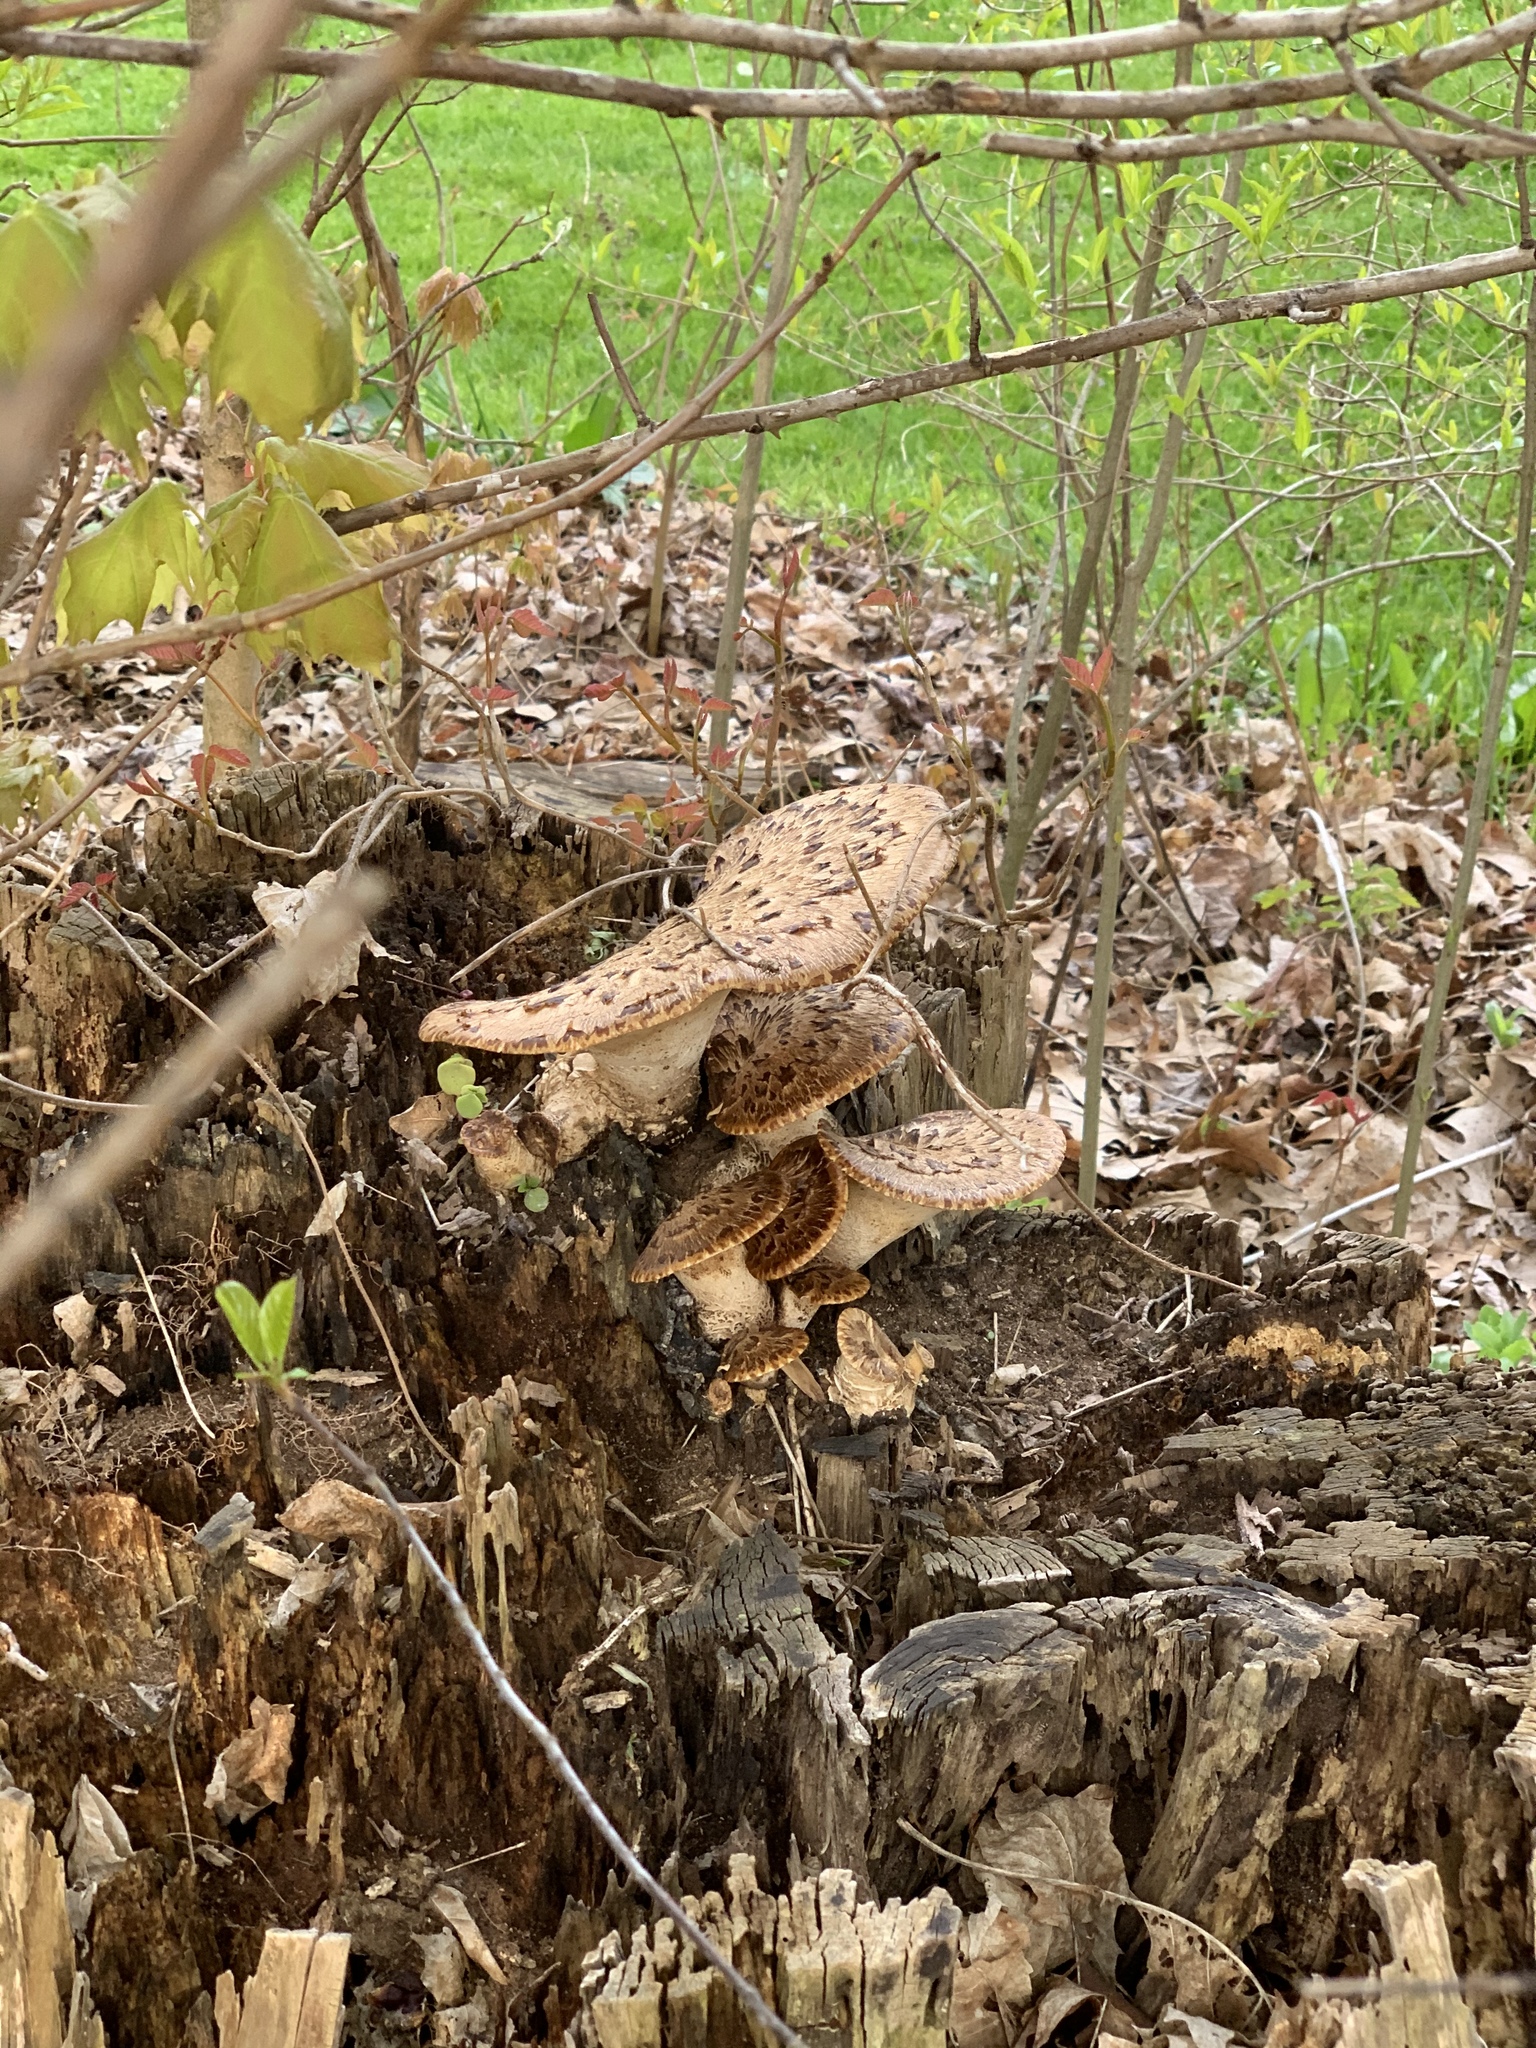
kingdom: Fungi
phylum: Basidiomycota
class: Agaricomycetes
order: Polyporales
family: Polyporaceae
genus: Cerioporus
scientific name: Cerioporus squamosus
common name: Dryad's saddle
